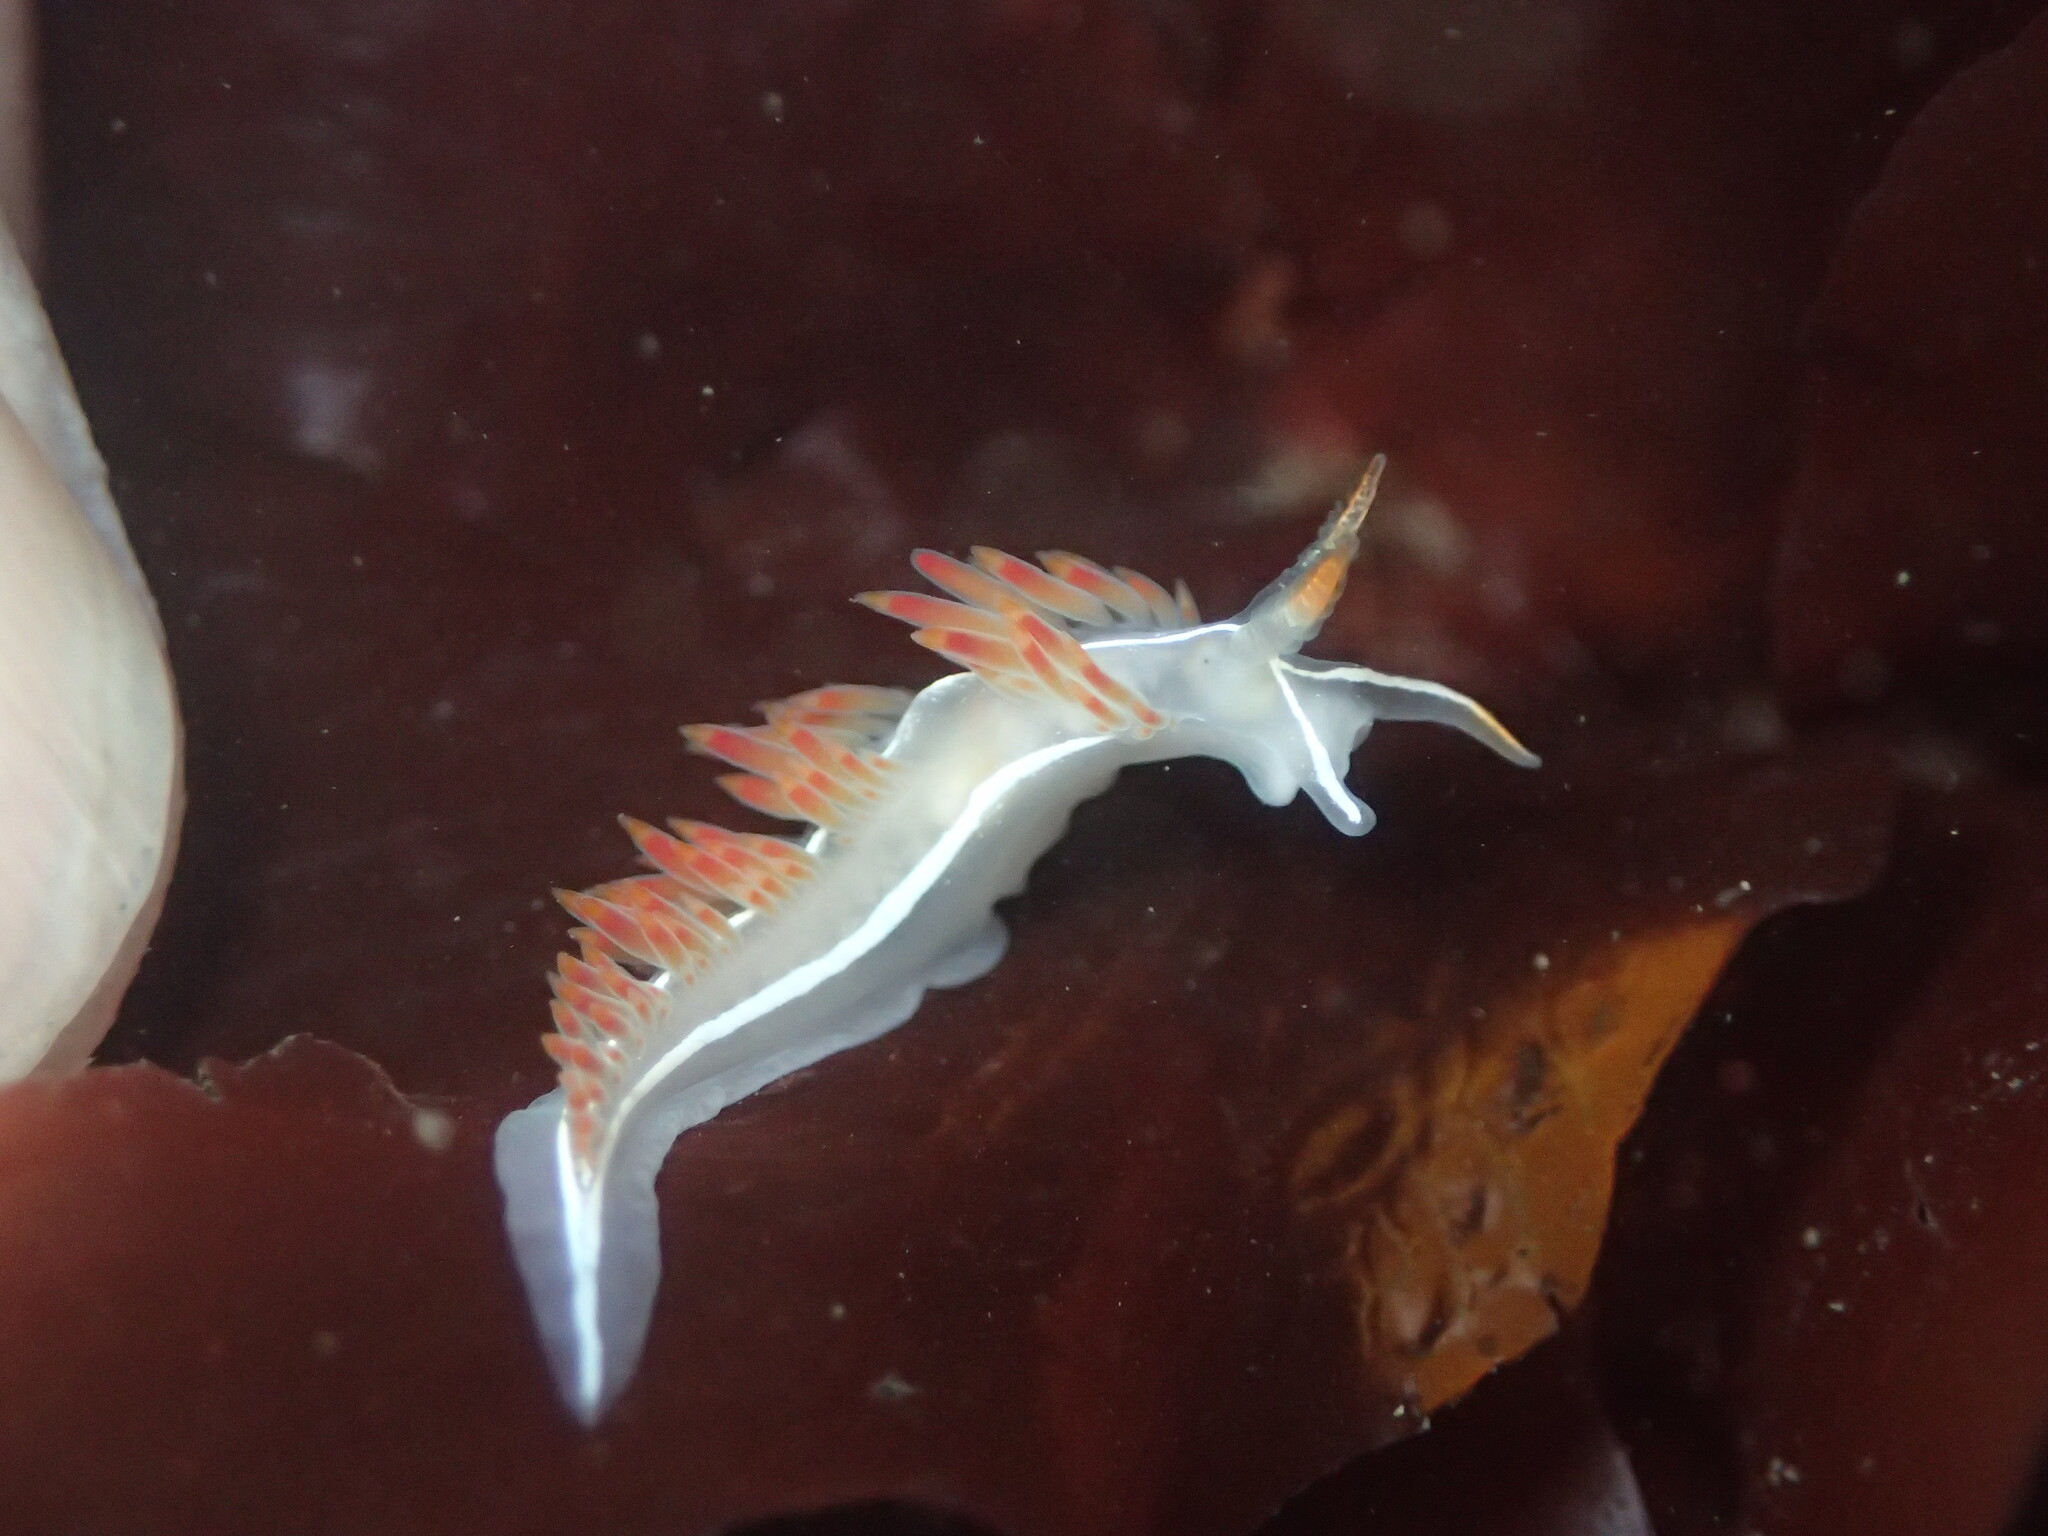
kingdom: Animalia
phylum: Mollusca
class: Gastropoda
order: Nudibranchia
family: Coryphellidae
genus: Coryphella
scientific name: Coryphella trilineata
